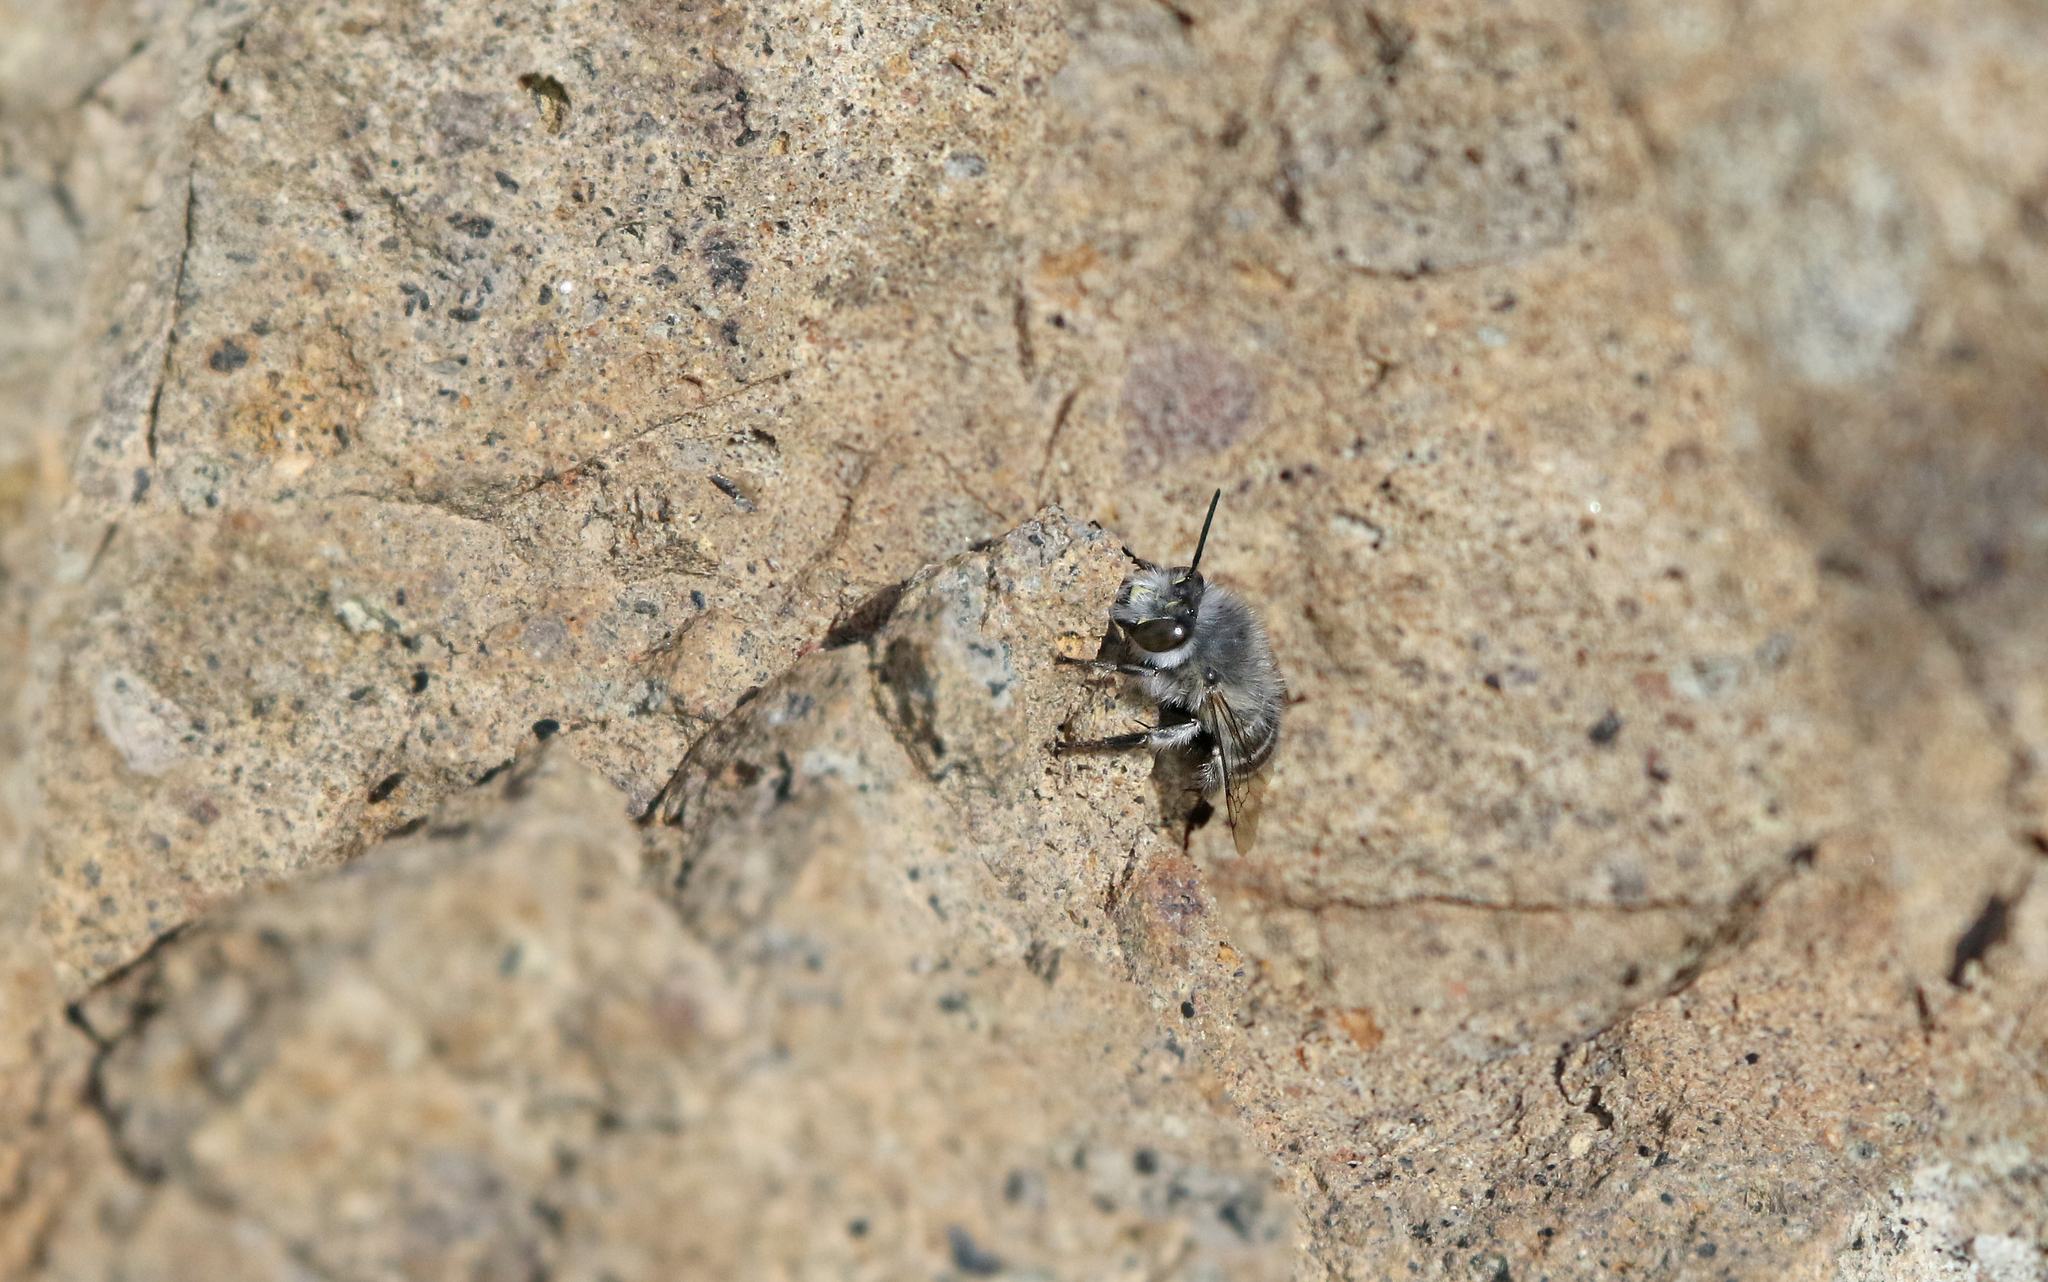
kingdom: Animalia
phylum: Arthropoda
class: Insecta
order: Hymenoptera
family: Apidae
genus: Anthophora
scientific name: Anthophora orotavae
